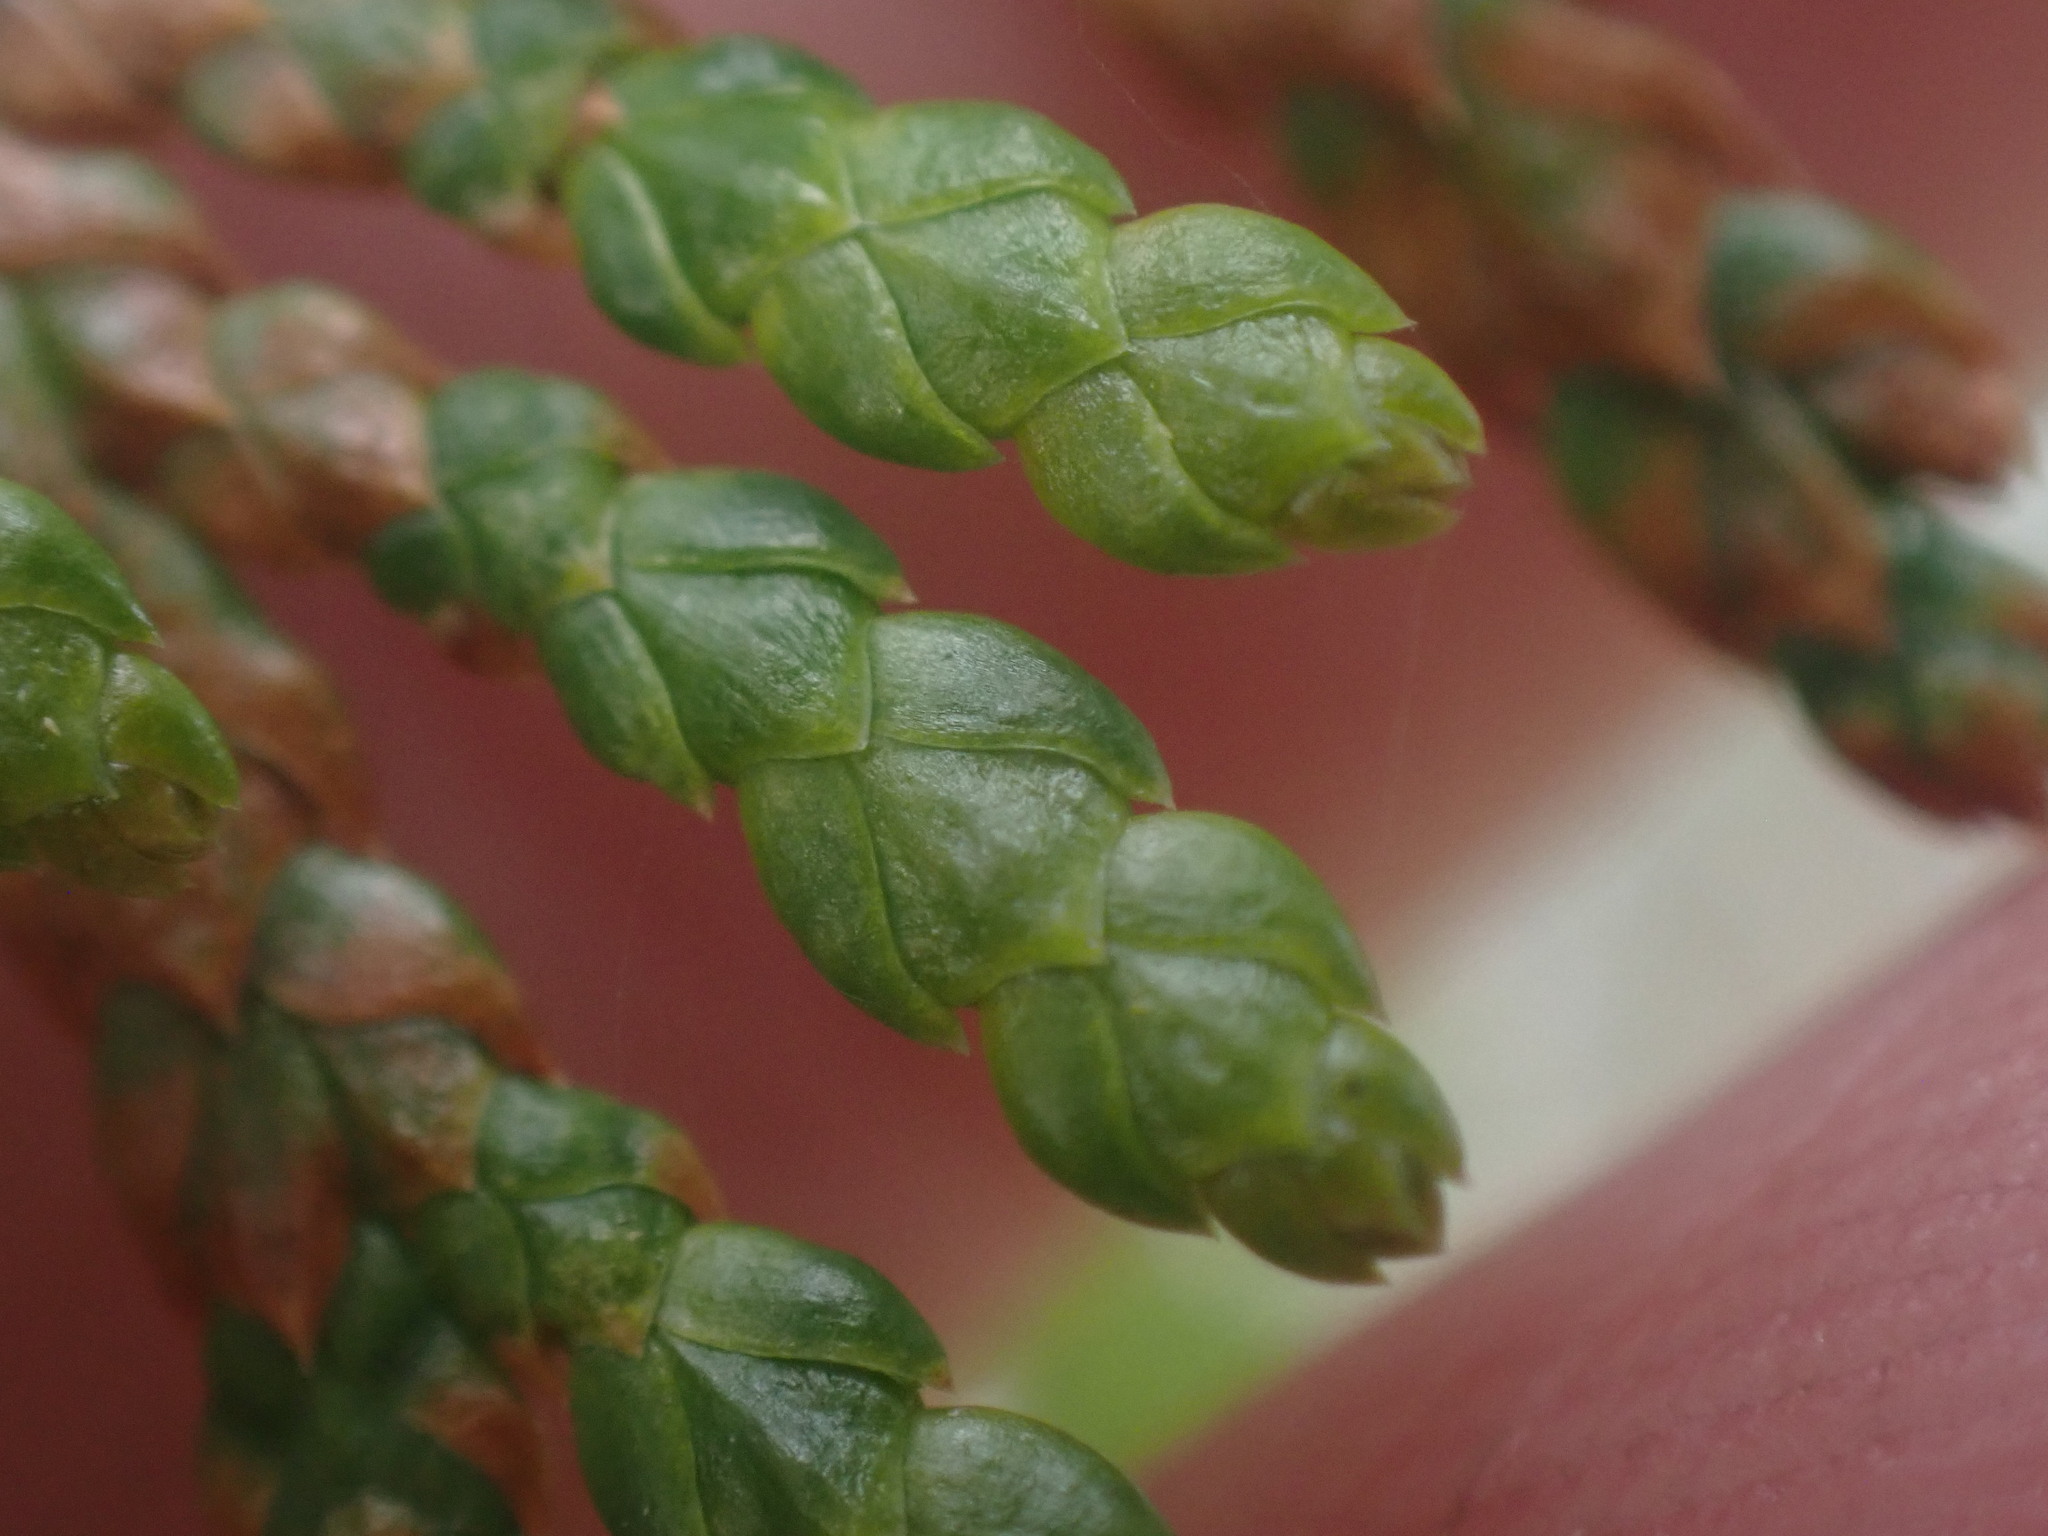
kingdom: Plantae
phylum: Tracheophyta
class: Pinopsida
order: Pinales
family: Cupressaceae
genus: Thuja
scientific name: Thuja plicata
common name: Western red-cedar
